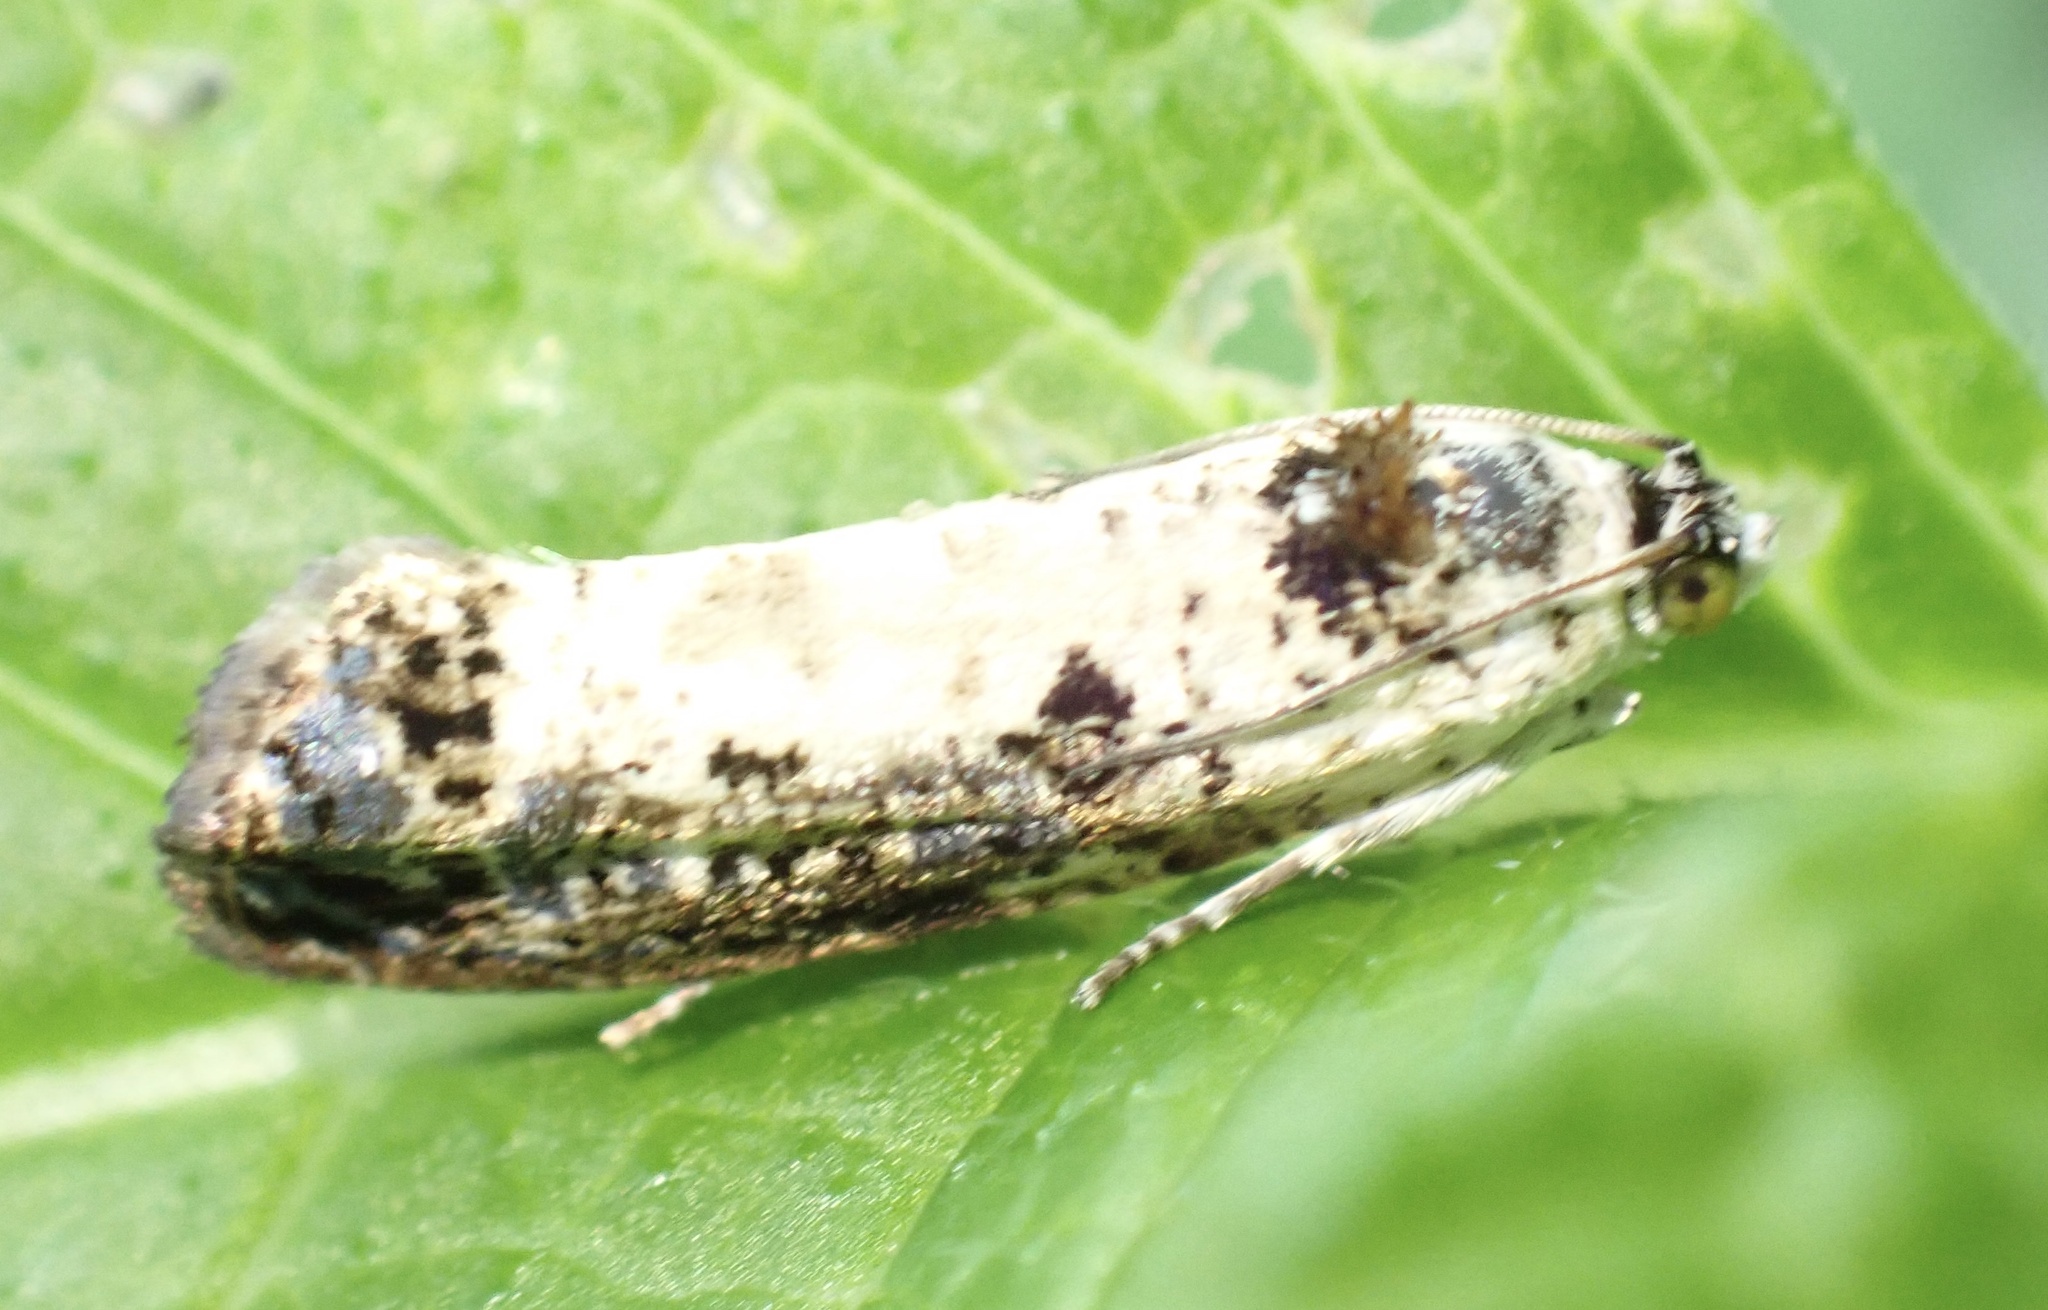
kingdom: Animalia
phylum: Arthropoda
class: Insecta
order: Lepidoptera
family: Tortricidae
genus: Hedya
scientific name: Hedya salicella
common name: Large tortricid moth
